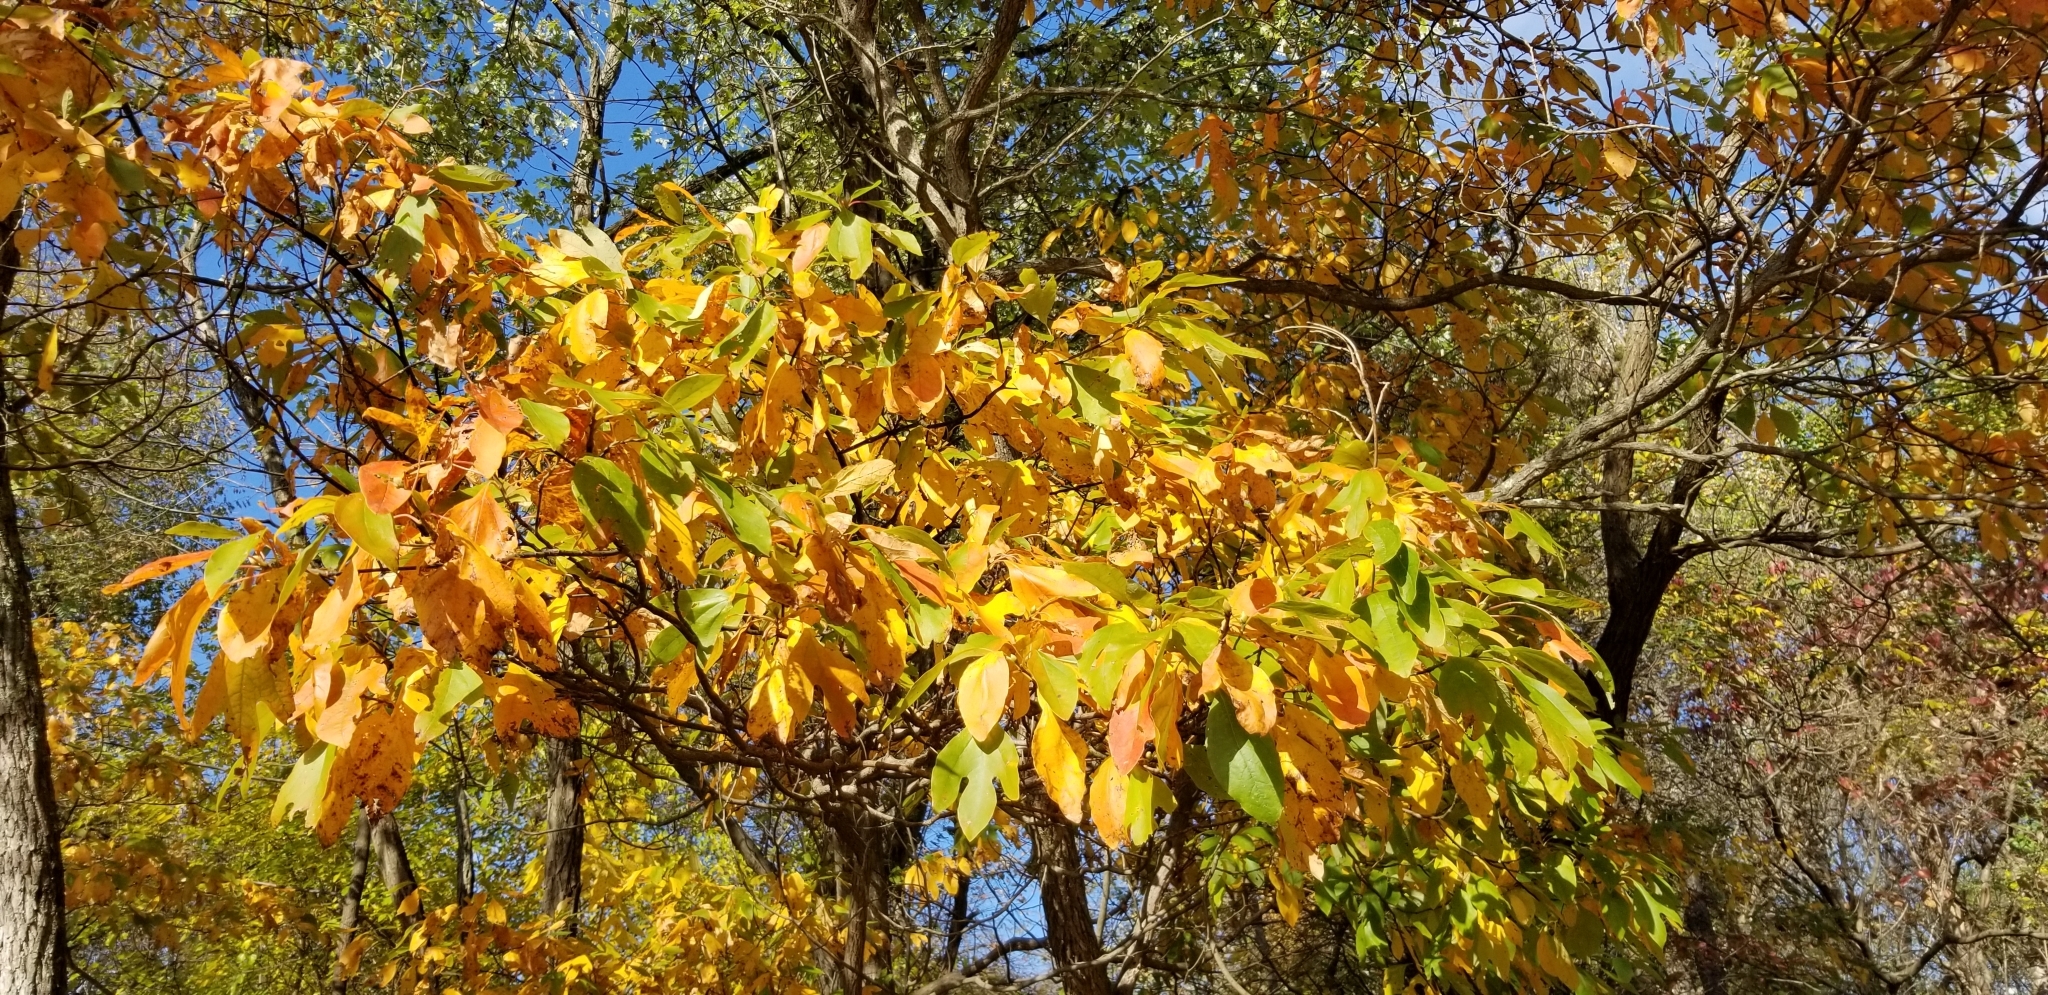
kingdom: Plantae
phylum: Tracheophyta
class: Magnoliopsida
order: Laurales
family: Lauraceae
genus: Sassafras
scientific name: Sassafras albidum
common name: Sassafras
